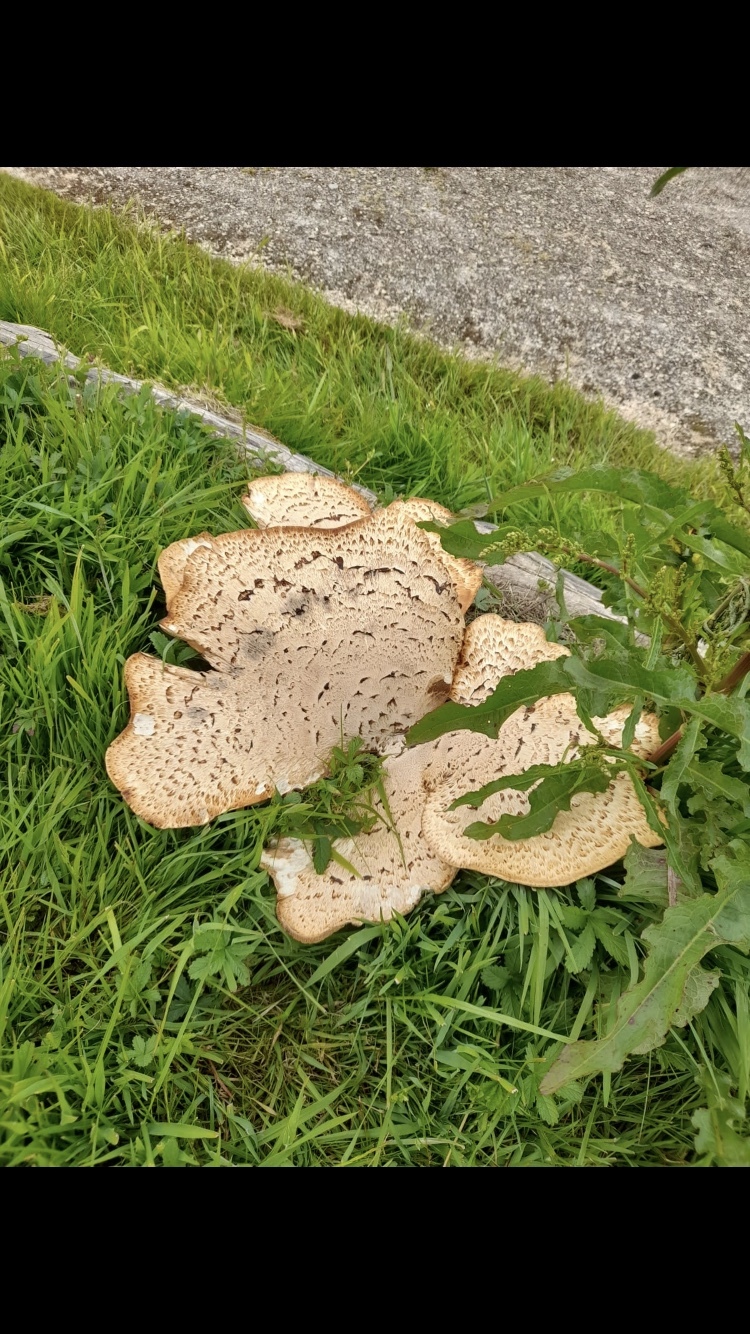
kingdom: Fungi
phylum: Basidiomycota
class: Agaricomycetes
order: Polyporales
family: Polyporaceae
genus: Cerioporus
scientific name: Cerioporus squamosus
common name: Dryad's saddle
